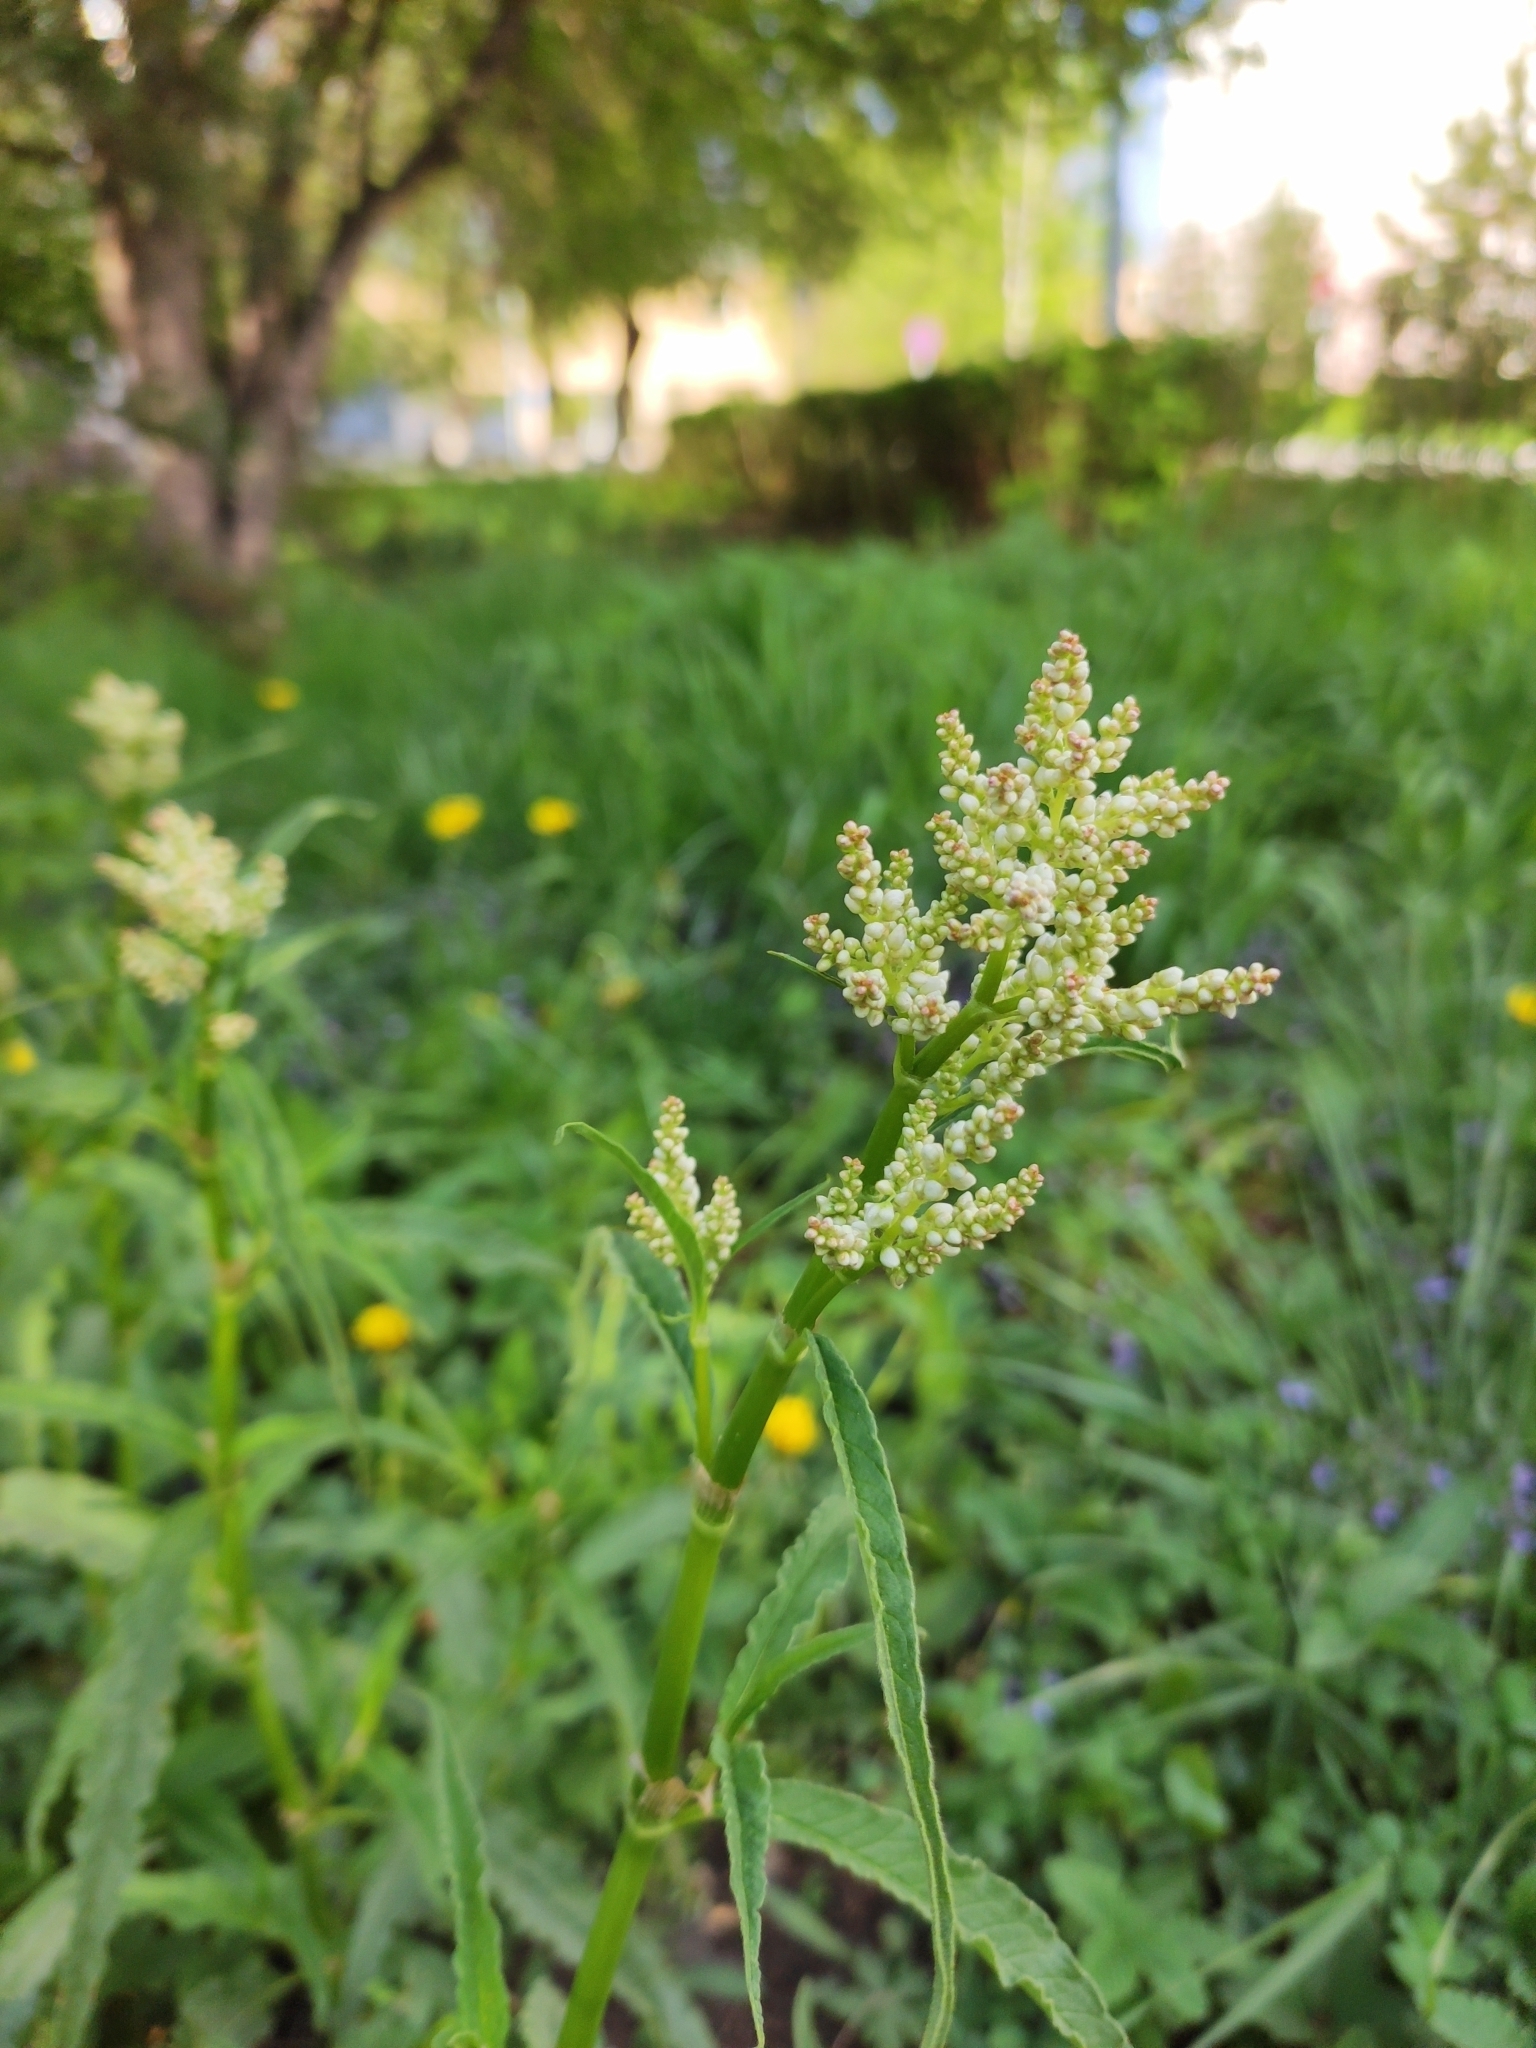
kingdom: Plantae
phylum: Tracheophyta
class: Magnoliopsida
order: Caryophyllales
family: Polygonaceae
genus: Koenigia
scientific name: Koenigia alpina
